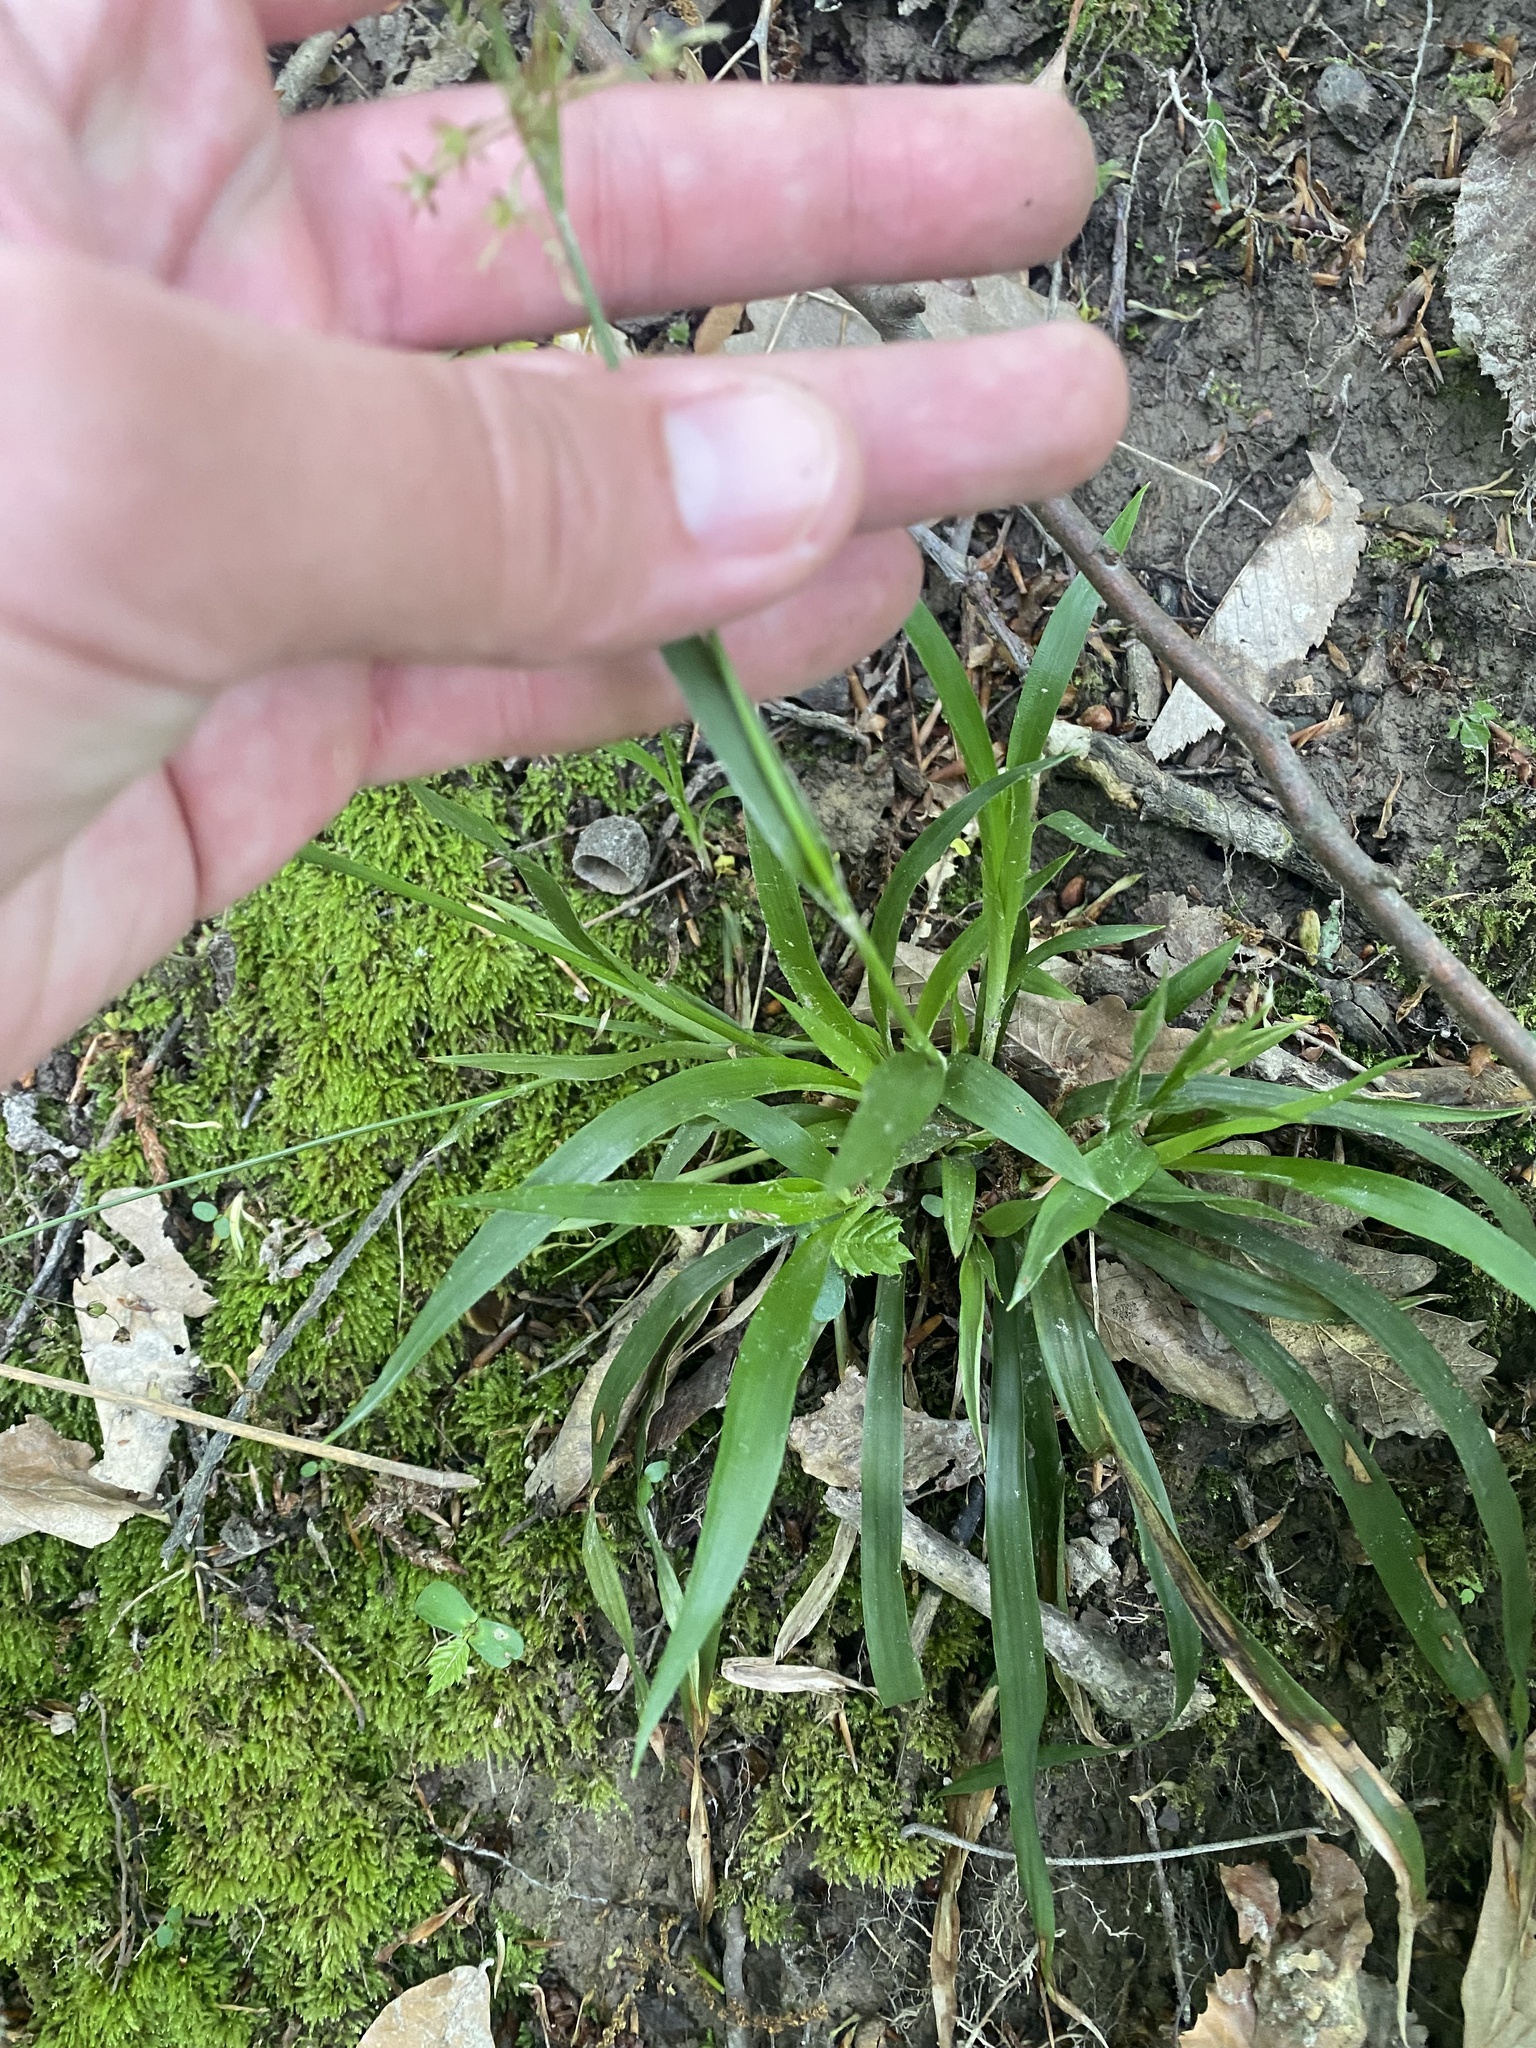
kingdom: Plantae
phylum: Tracheophyta
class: Liliopsida
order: Poales
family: Juncaceae
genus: Luzula
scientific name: Luzula forsteri
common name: Southern wood-rush
